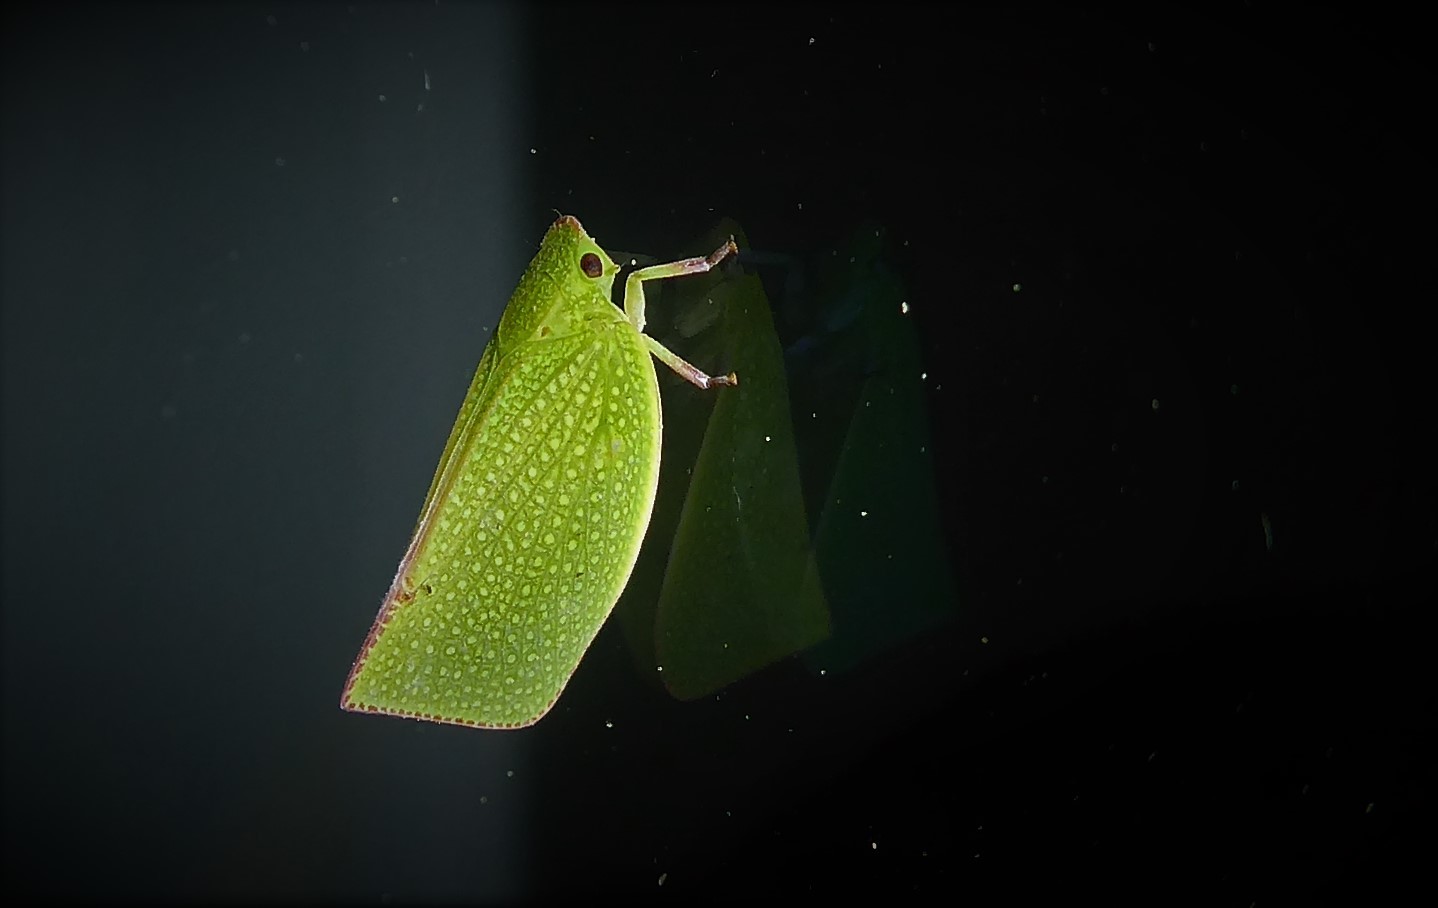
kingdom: Animalia
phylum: Arthropoda
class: Insecta
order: Hemiptera
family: Flatidae
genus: Siphanta
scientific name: Siphanta acuta
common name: Torpedo bug
